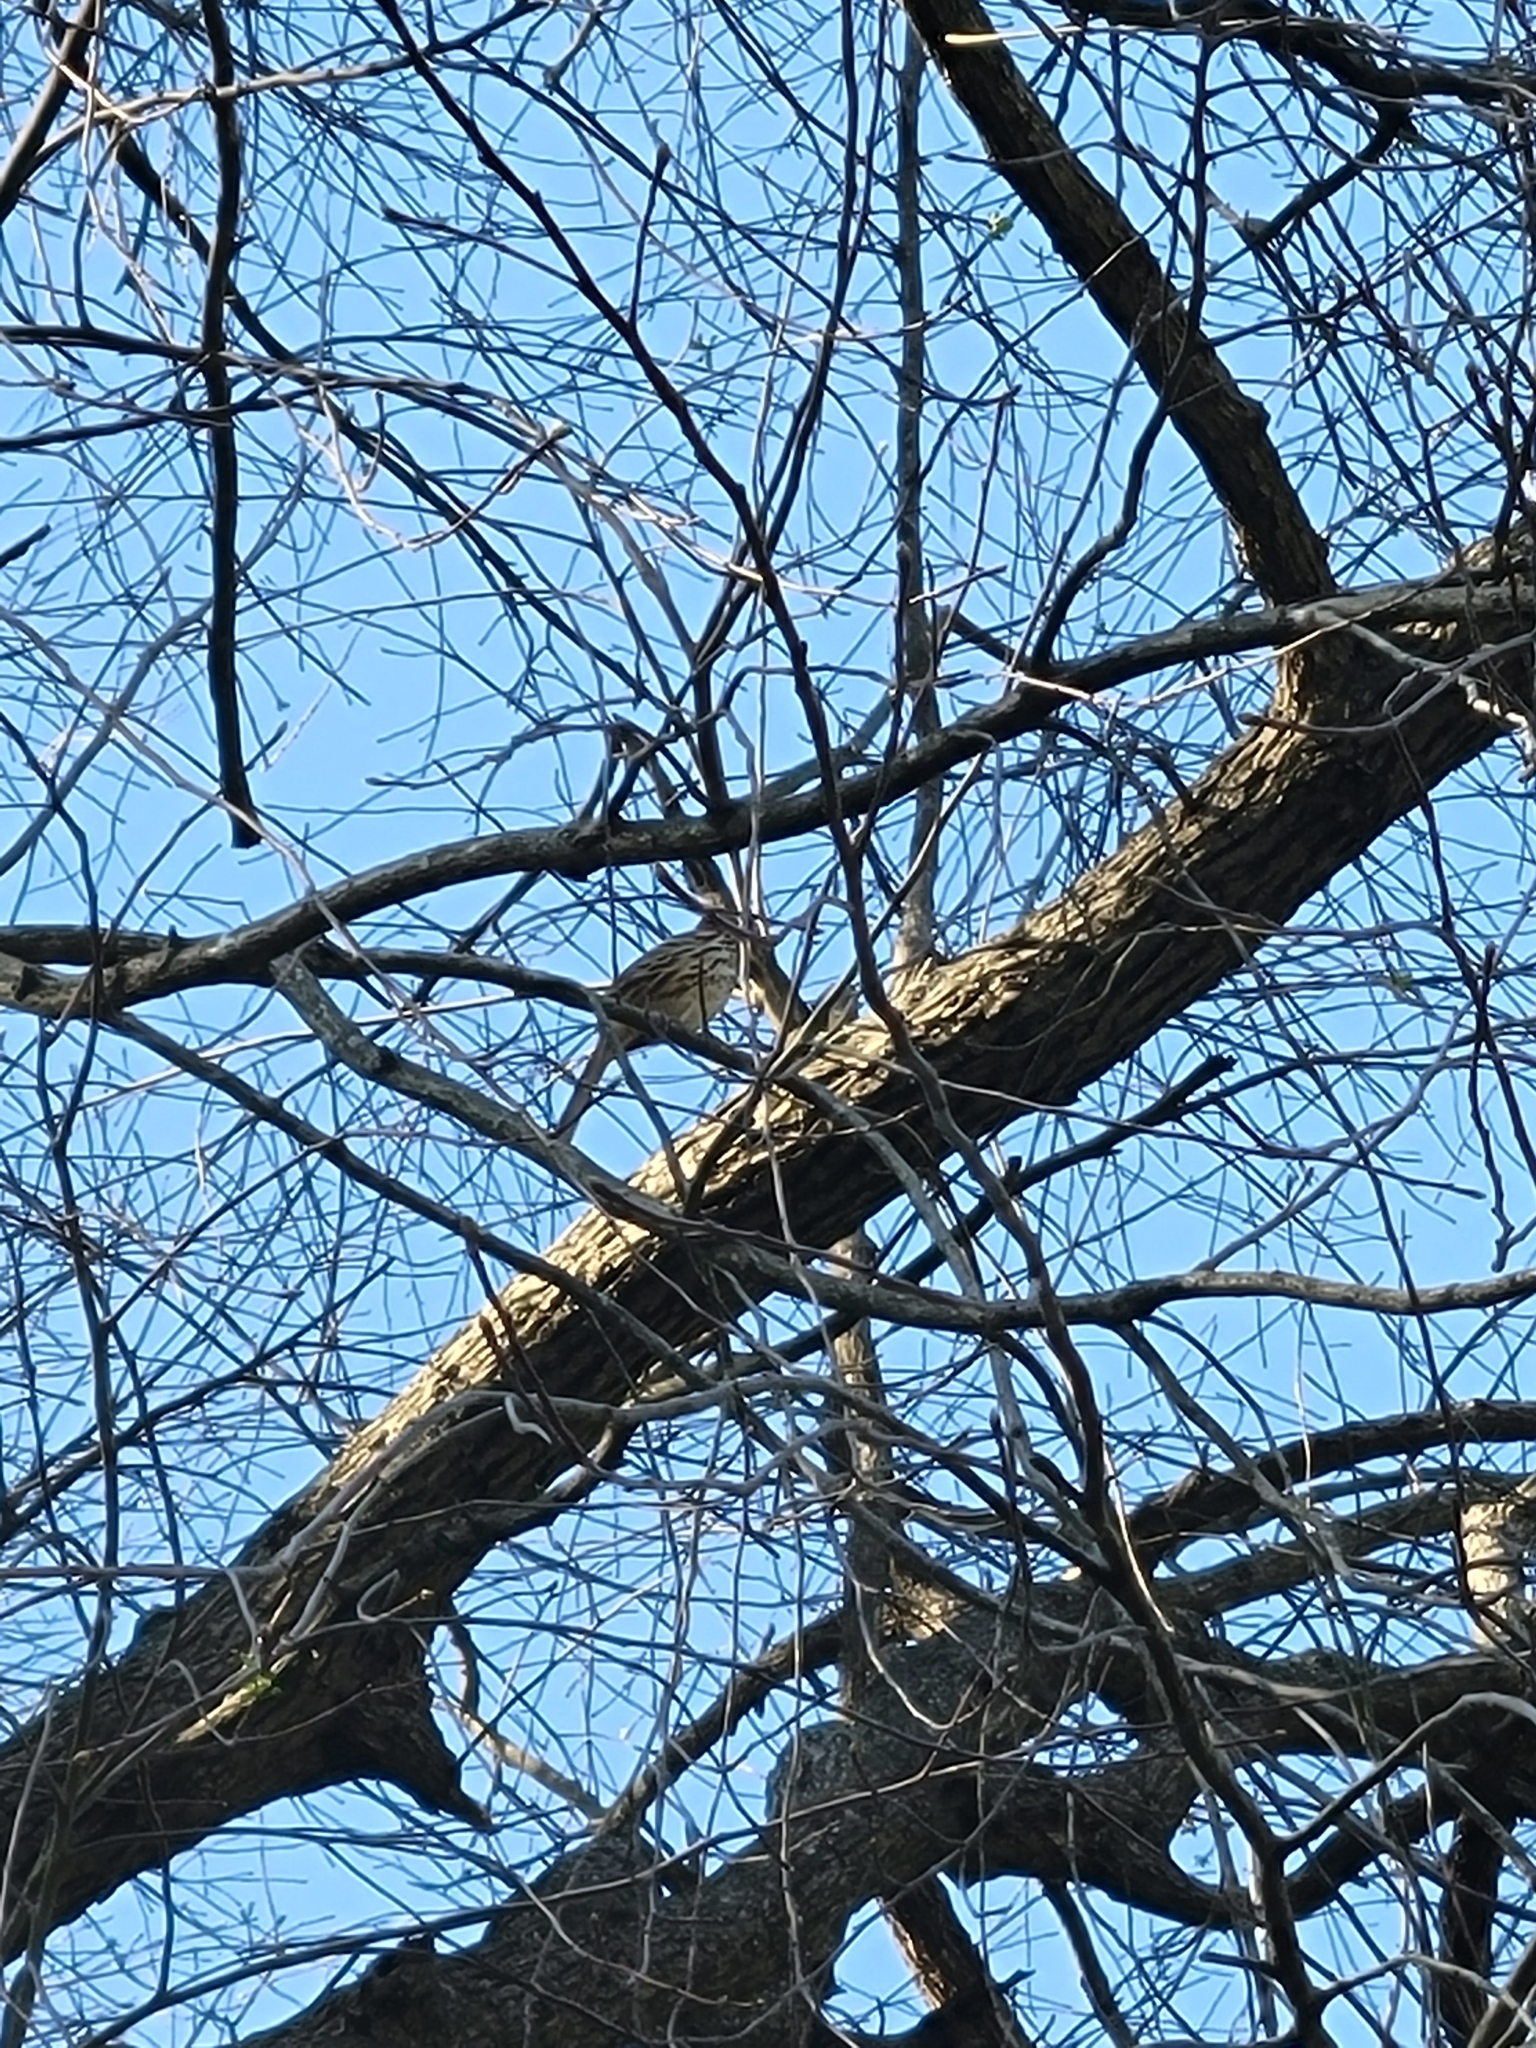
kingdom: Animalia
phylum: Chordata
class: Aves
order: Passeriformes
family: Mimidae
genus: Toxostoma
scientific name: Toxostoma rufum
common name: Brown thrasher
